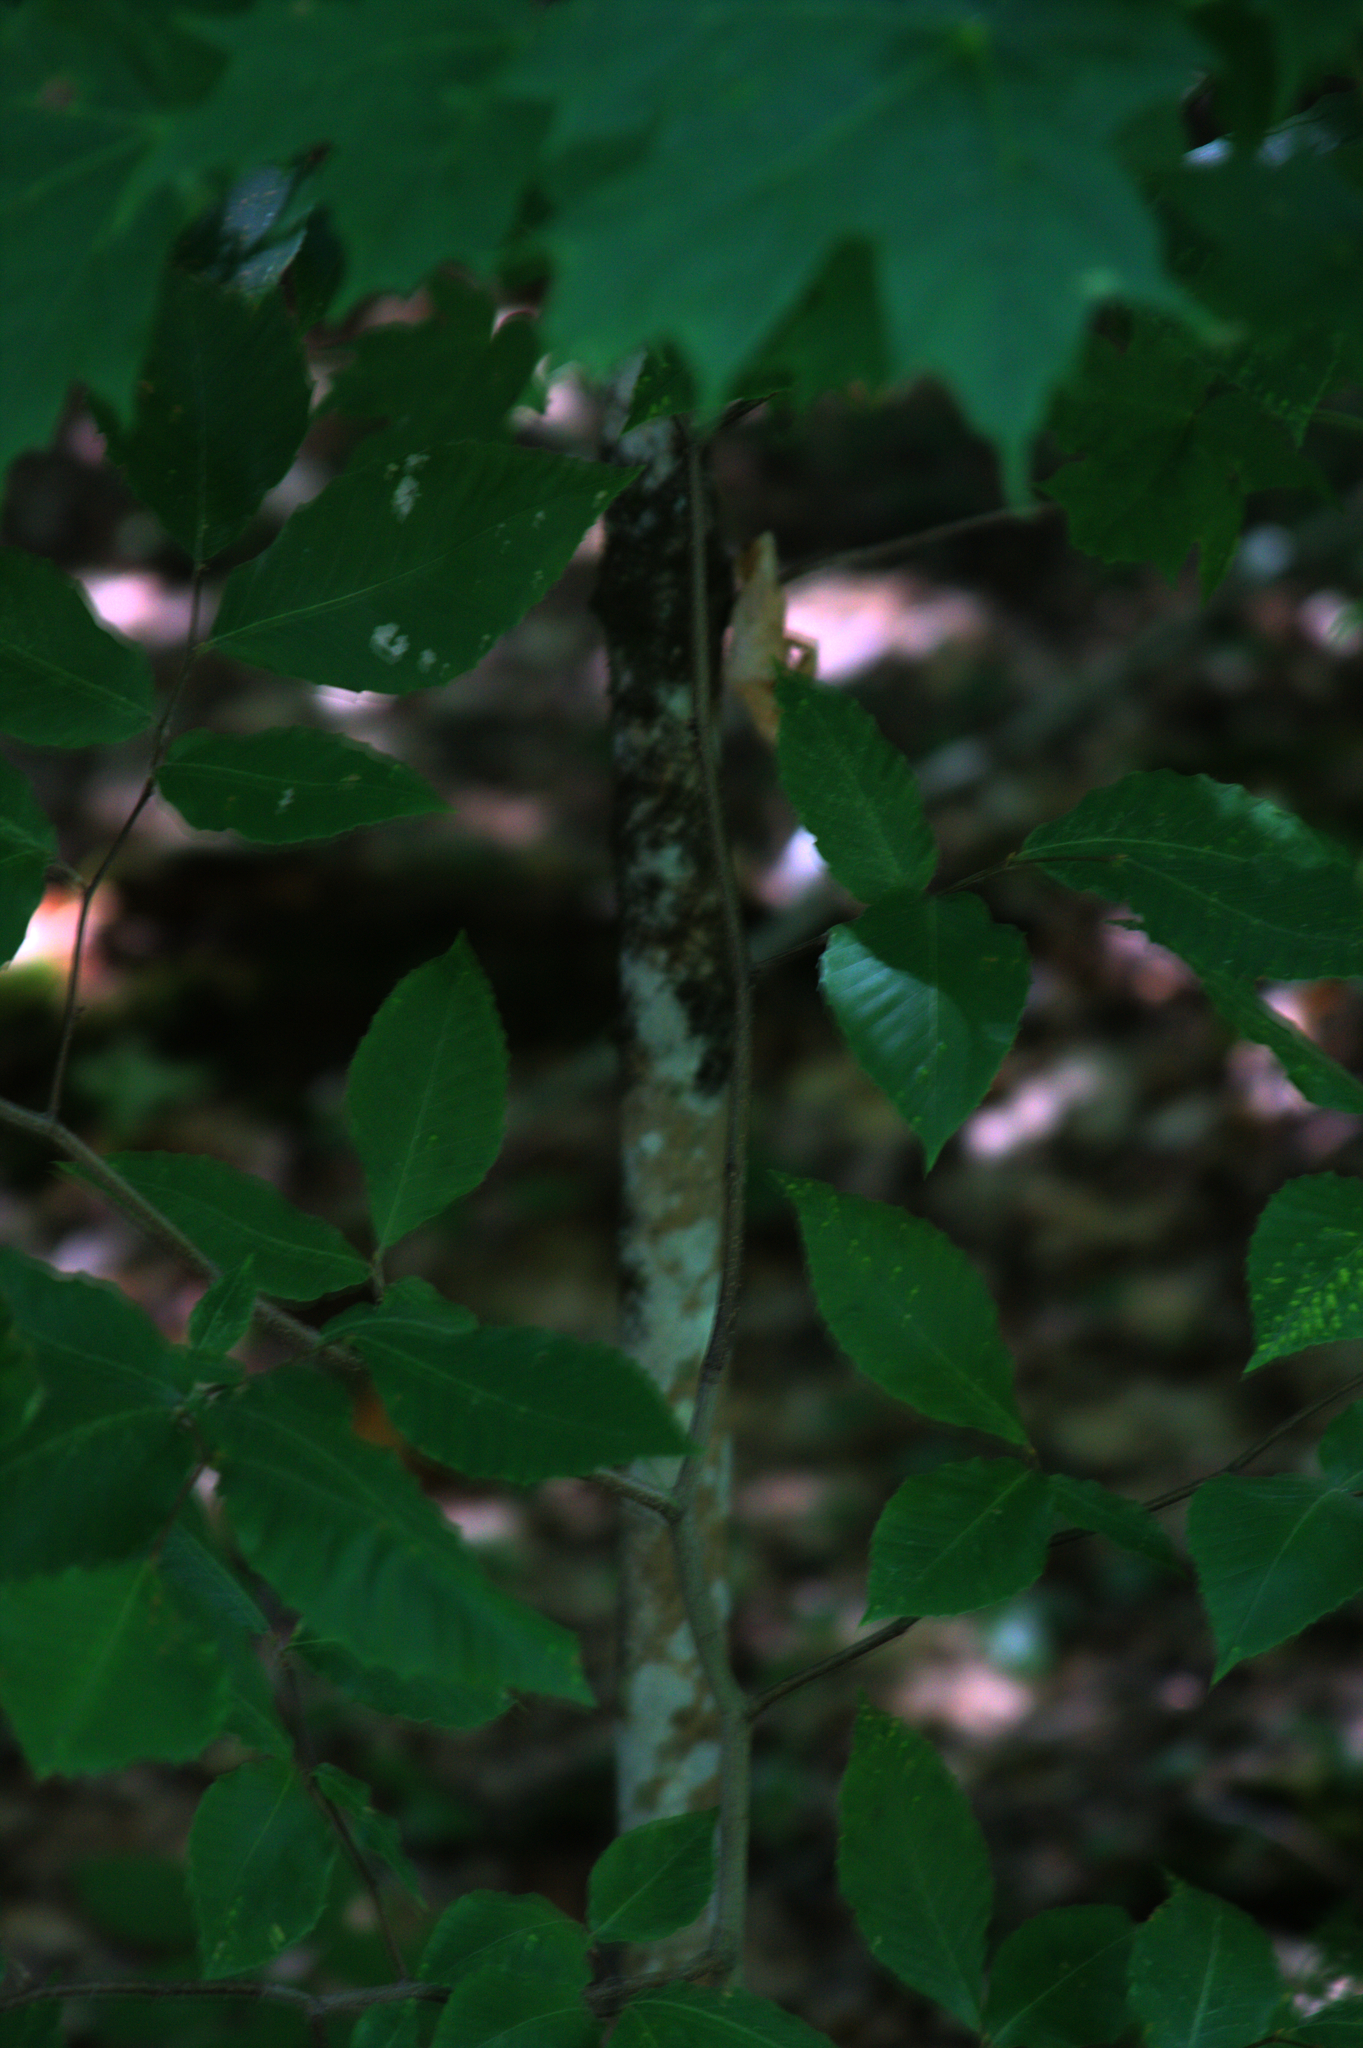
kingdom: Plantae
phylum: Tracheophyta
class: Magnoliopsida
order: Fagales
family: Fagaceae
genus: Fagus
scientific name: Fagus grandifolia
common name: American beech
